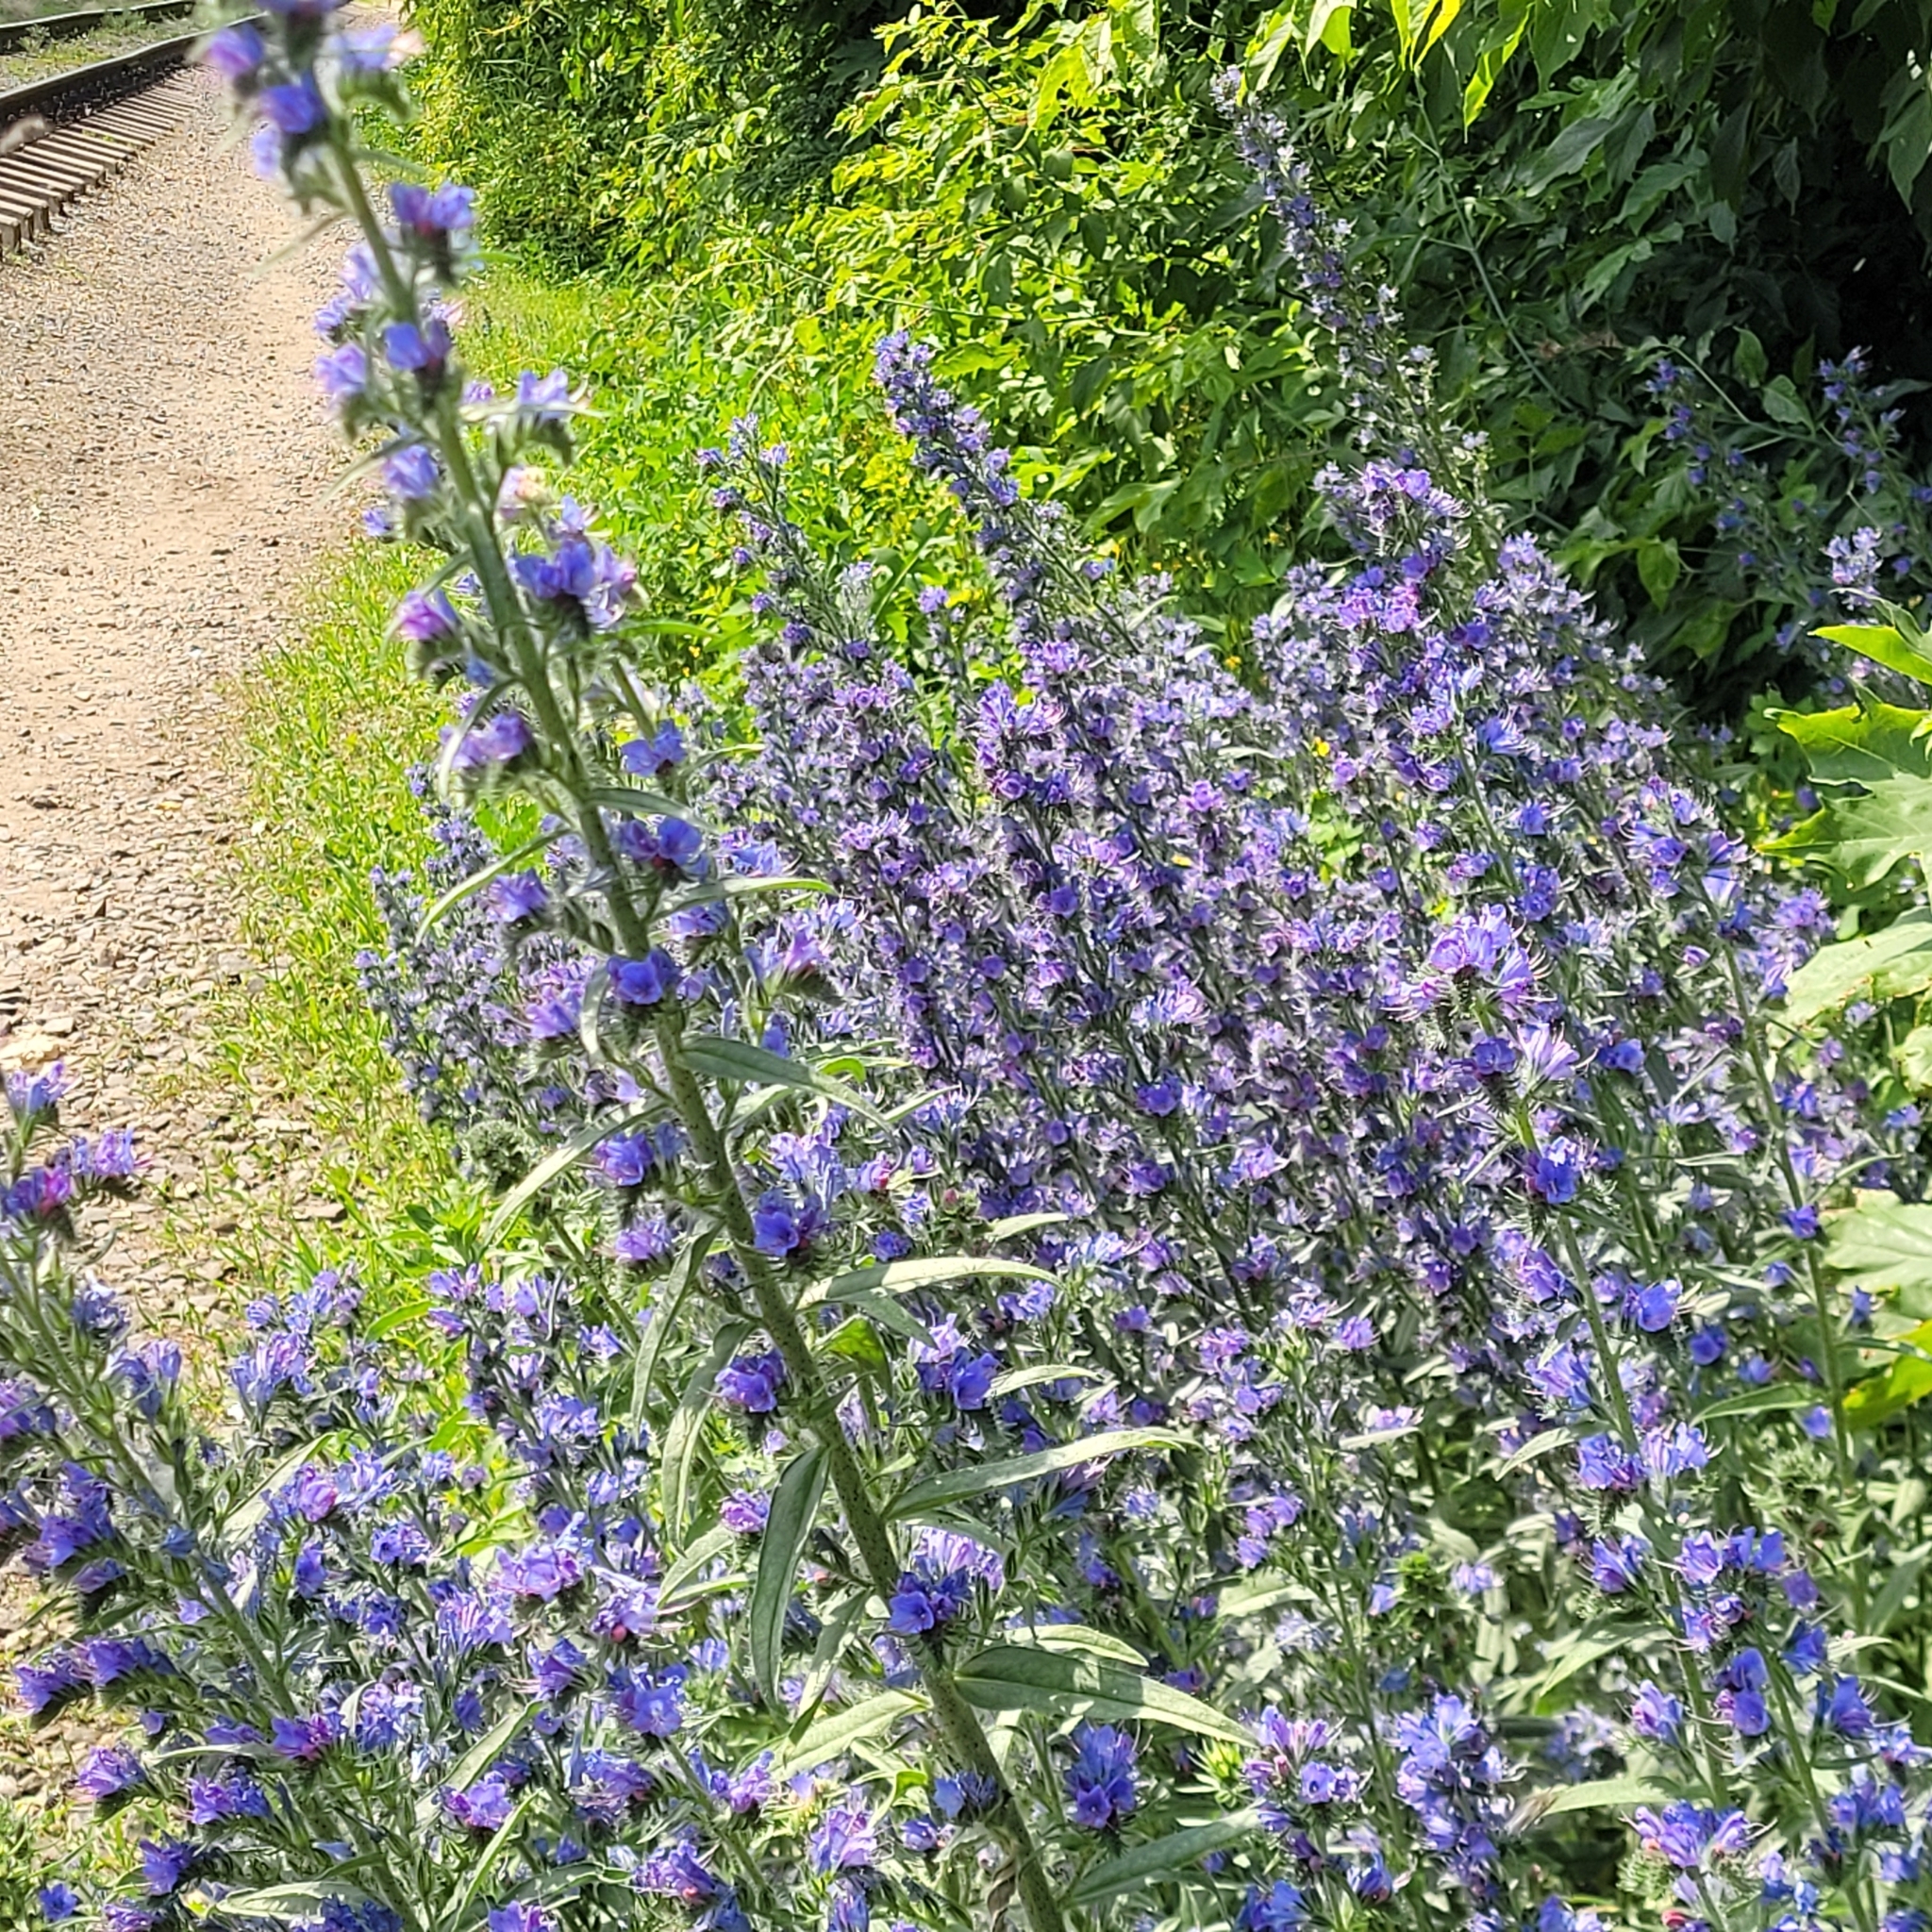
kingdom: Plantae
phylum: Tracheophyta
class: Magnoliopsida
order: Boraginales
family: Boraginaceae
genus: Echium
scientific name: Echium vulgare
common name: Common viper's bugloss
